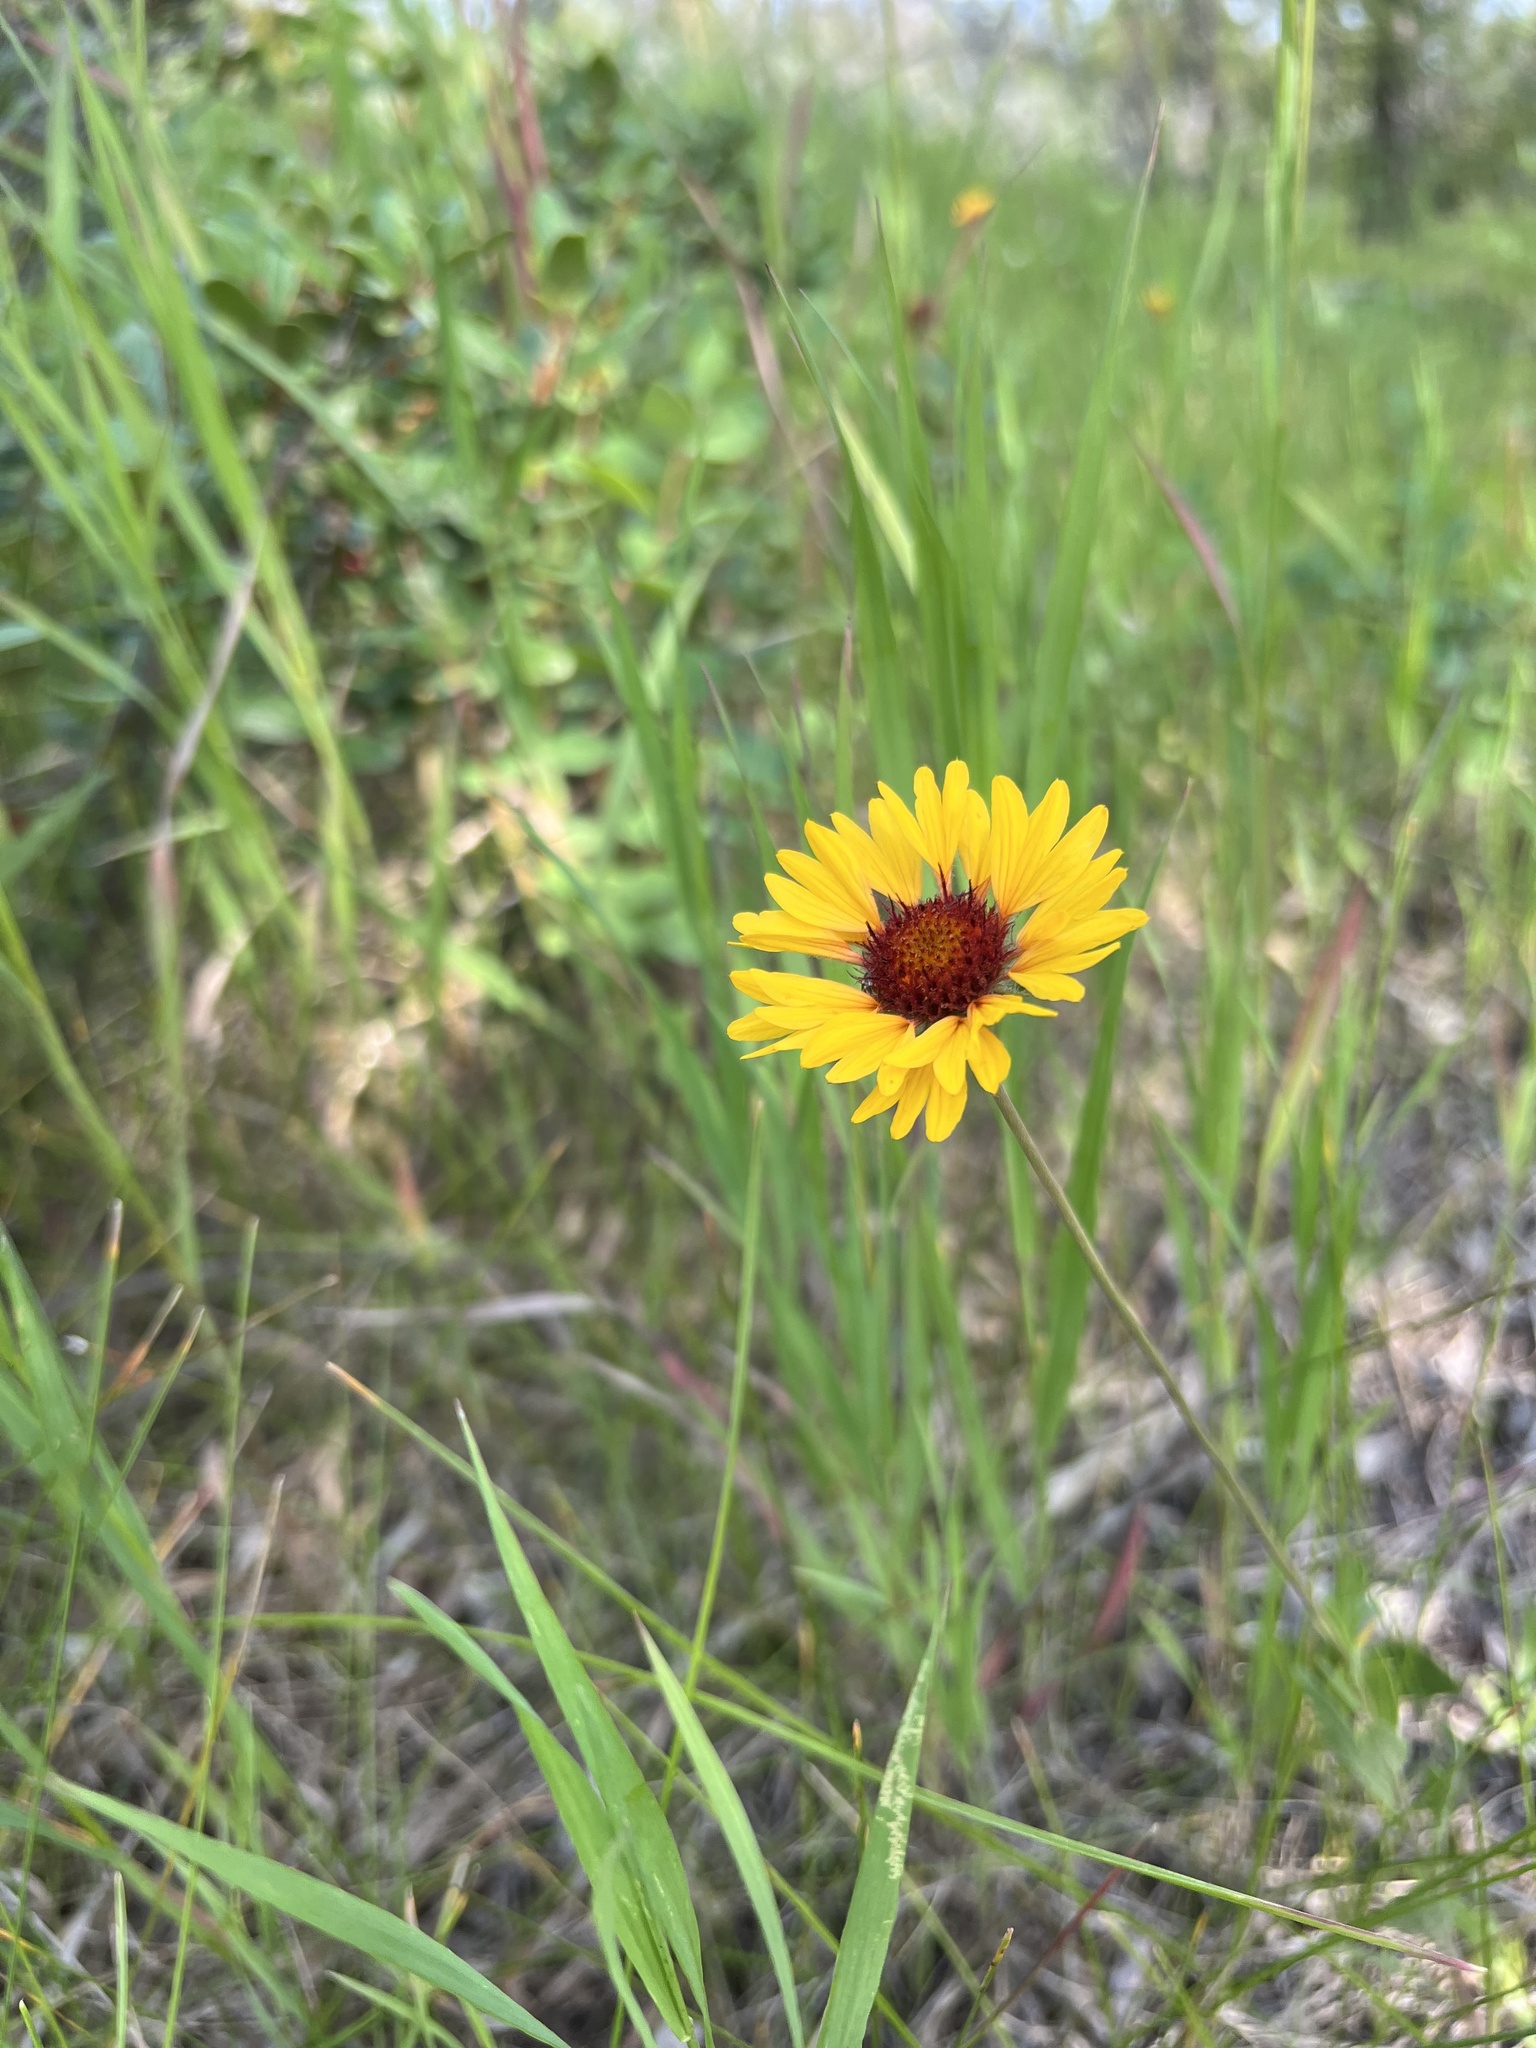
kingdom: Plantae
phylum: Tracheophyta
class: Magnoliopsida
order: Asterales
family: Asteraceae
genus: Gaillardia
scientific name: Gaillardia aristata
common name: Blanket-flower
